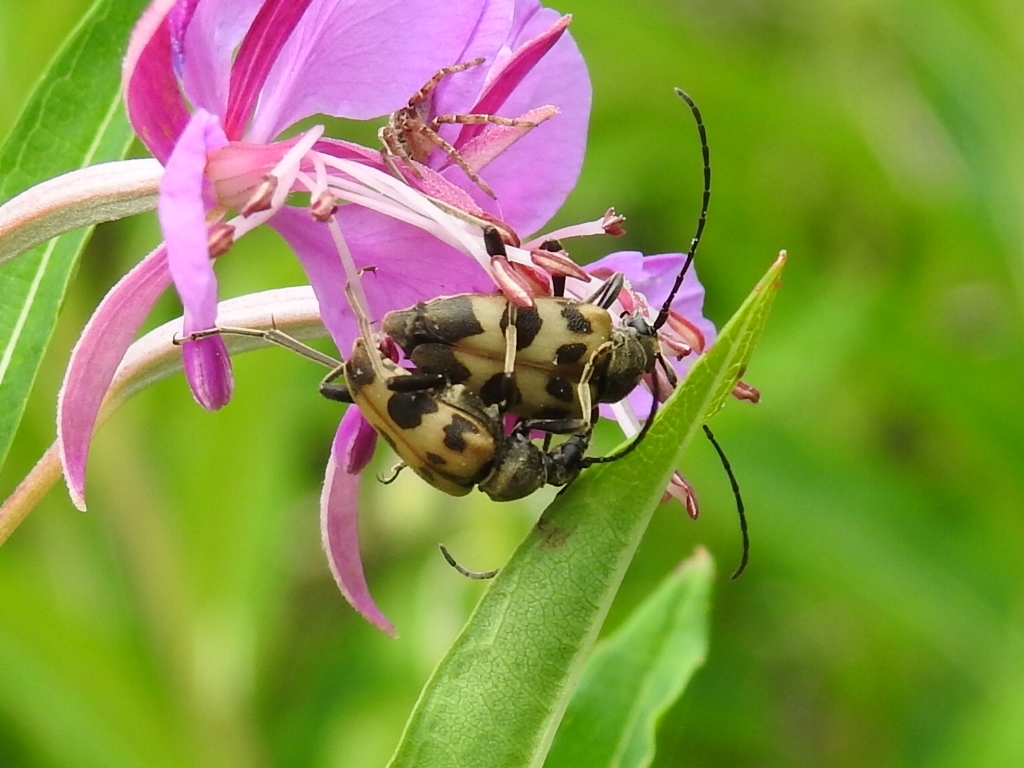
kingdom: Animalia
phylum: Arthropoda
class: Insecta
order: Coleoptera
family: Cerambycidae
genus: Pachytodes
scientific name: Pachytodes cerambyciformis
